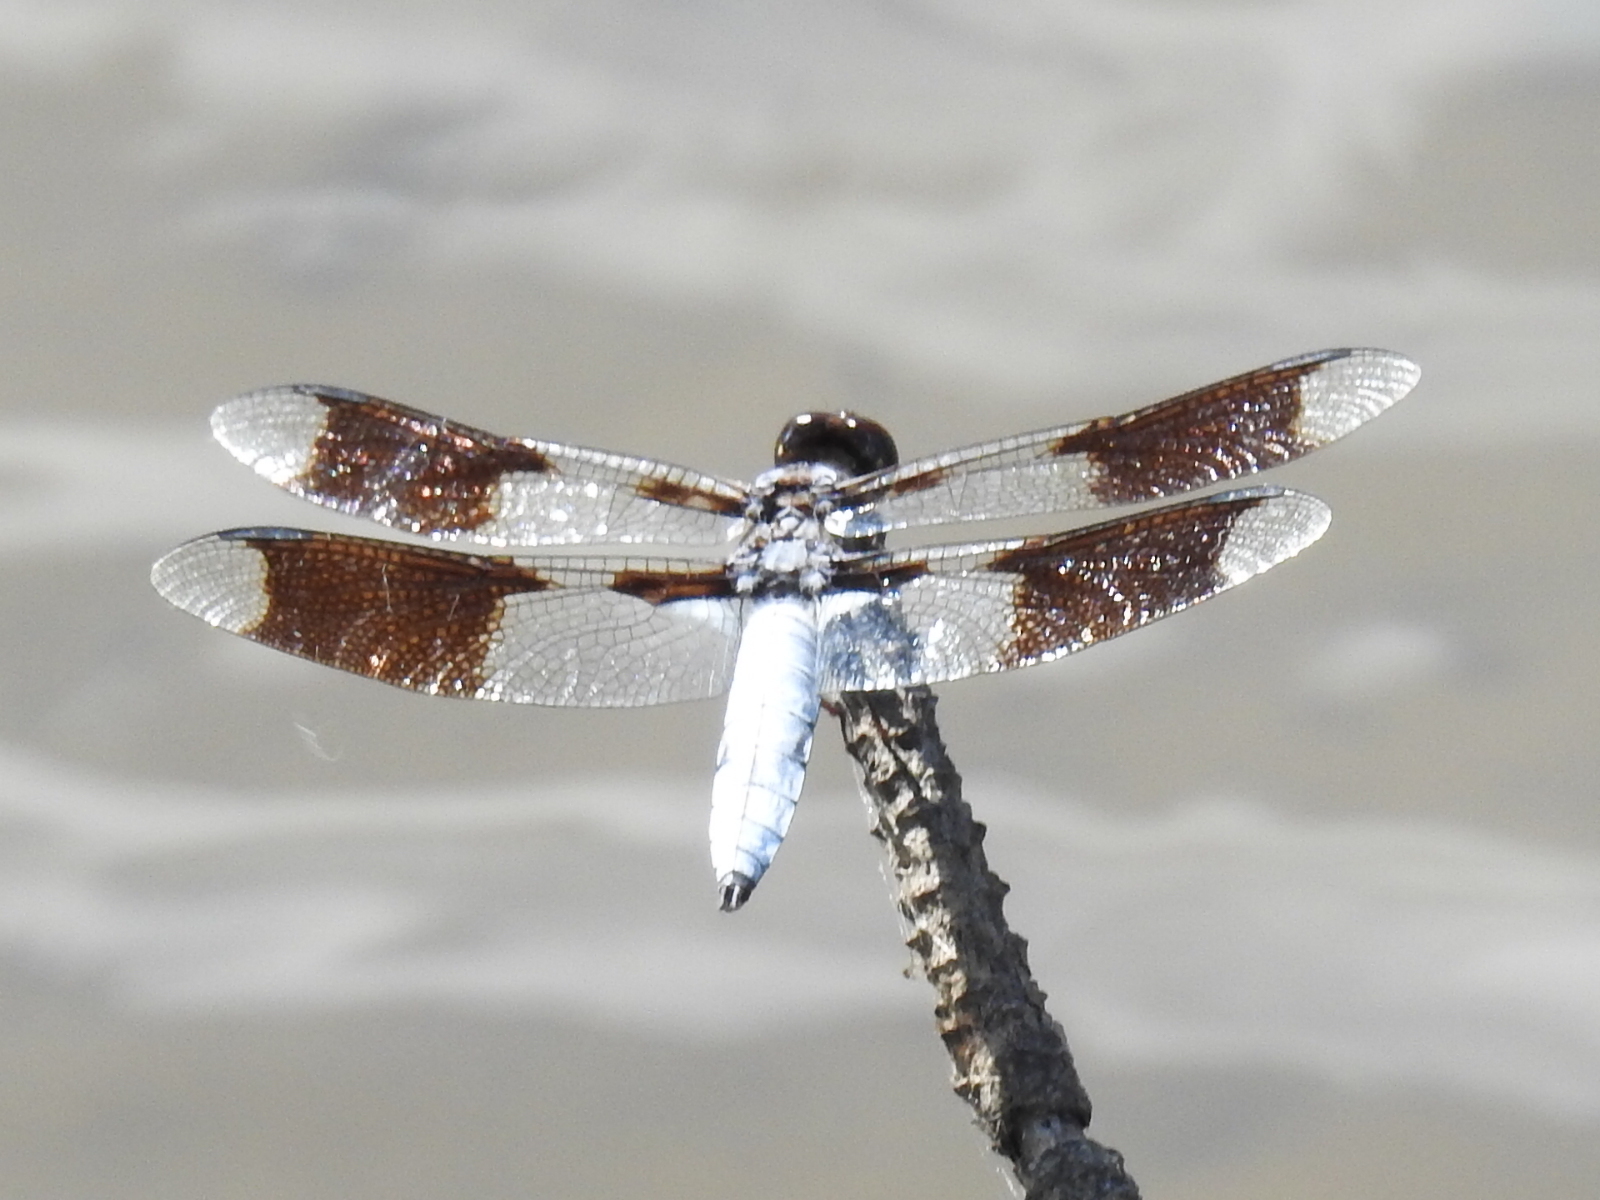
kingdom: Animalia
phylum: Arthropoda
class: Insecta
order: Odonata
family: Libellulidae
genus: Plathemis
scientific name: Plathemis lydia
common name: Common whitetail
